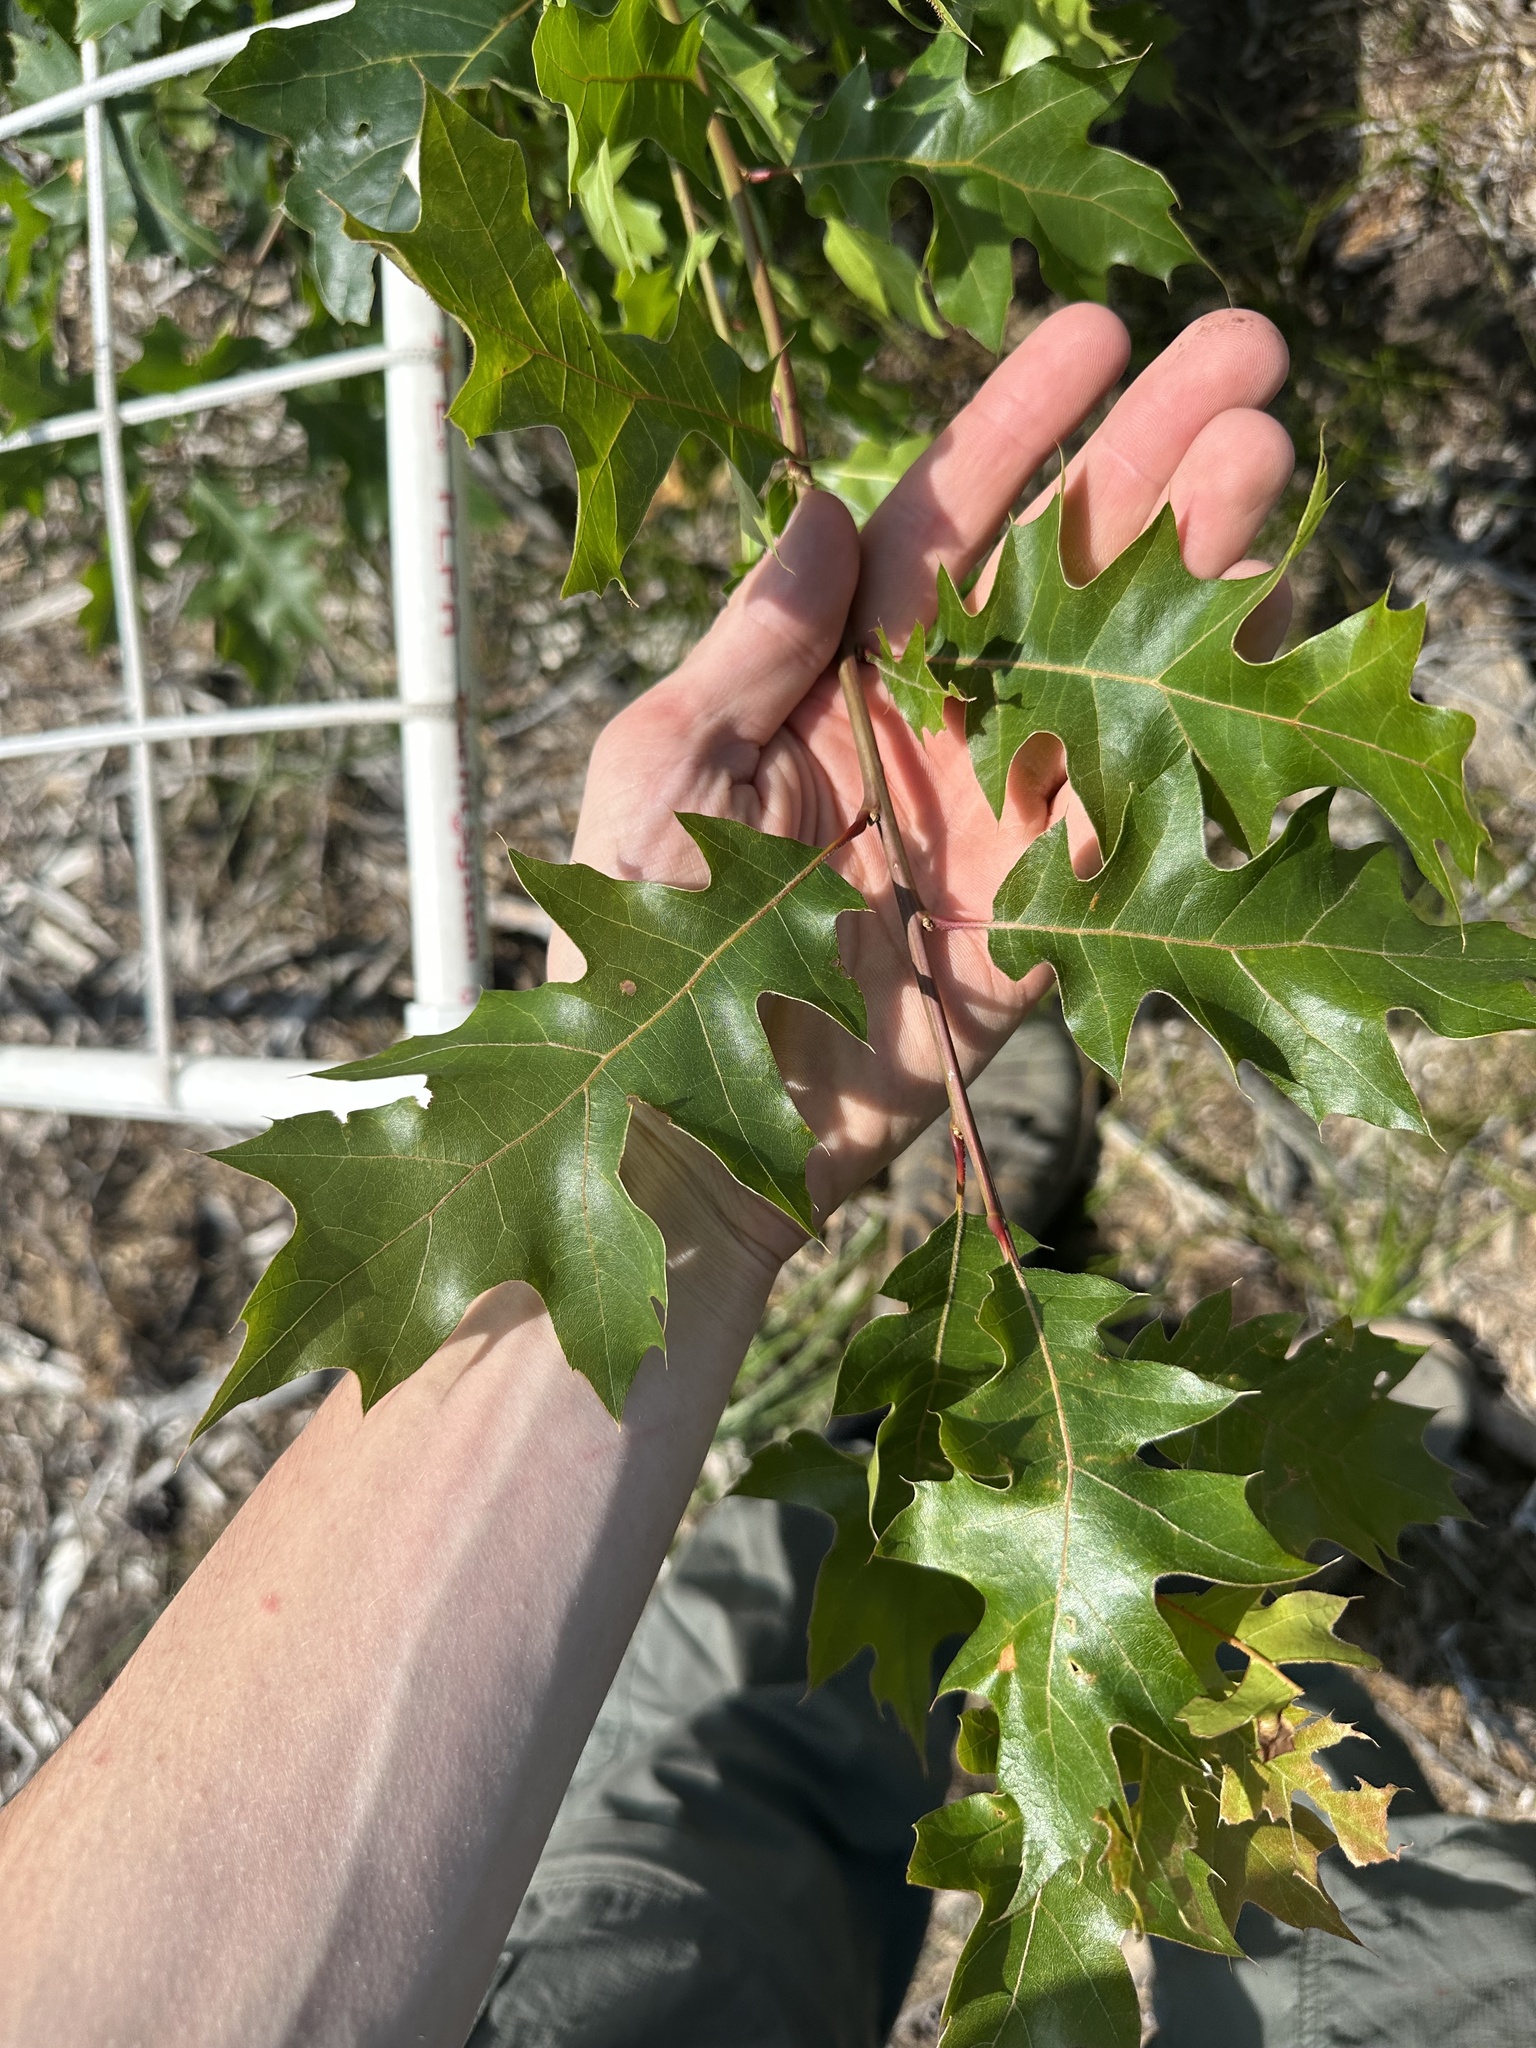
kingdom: Plantae
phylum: Tracheophyta
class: Magnoliopsida
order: Fagales
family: Fagaceae
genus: Quercus
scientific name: Quercus rubra
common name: Red oak
